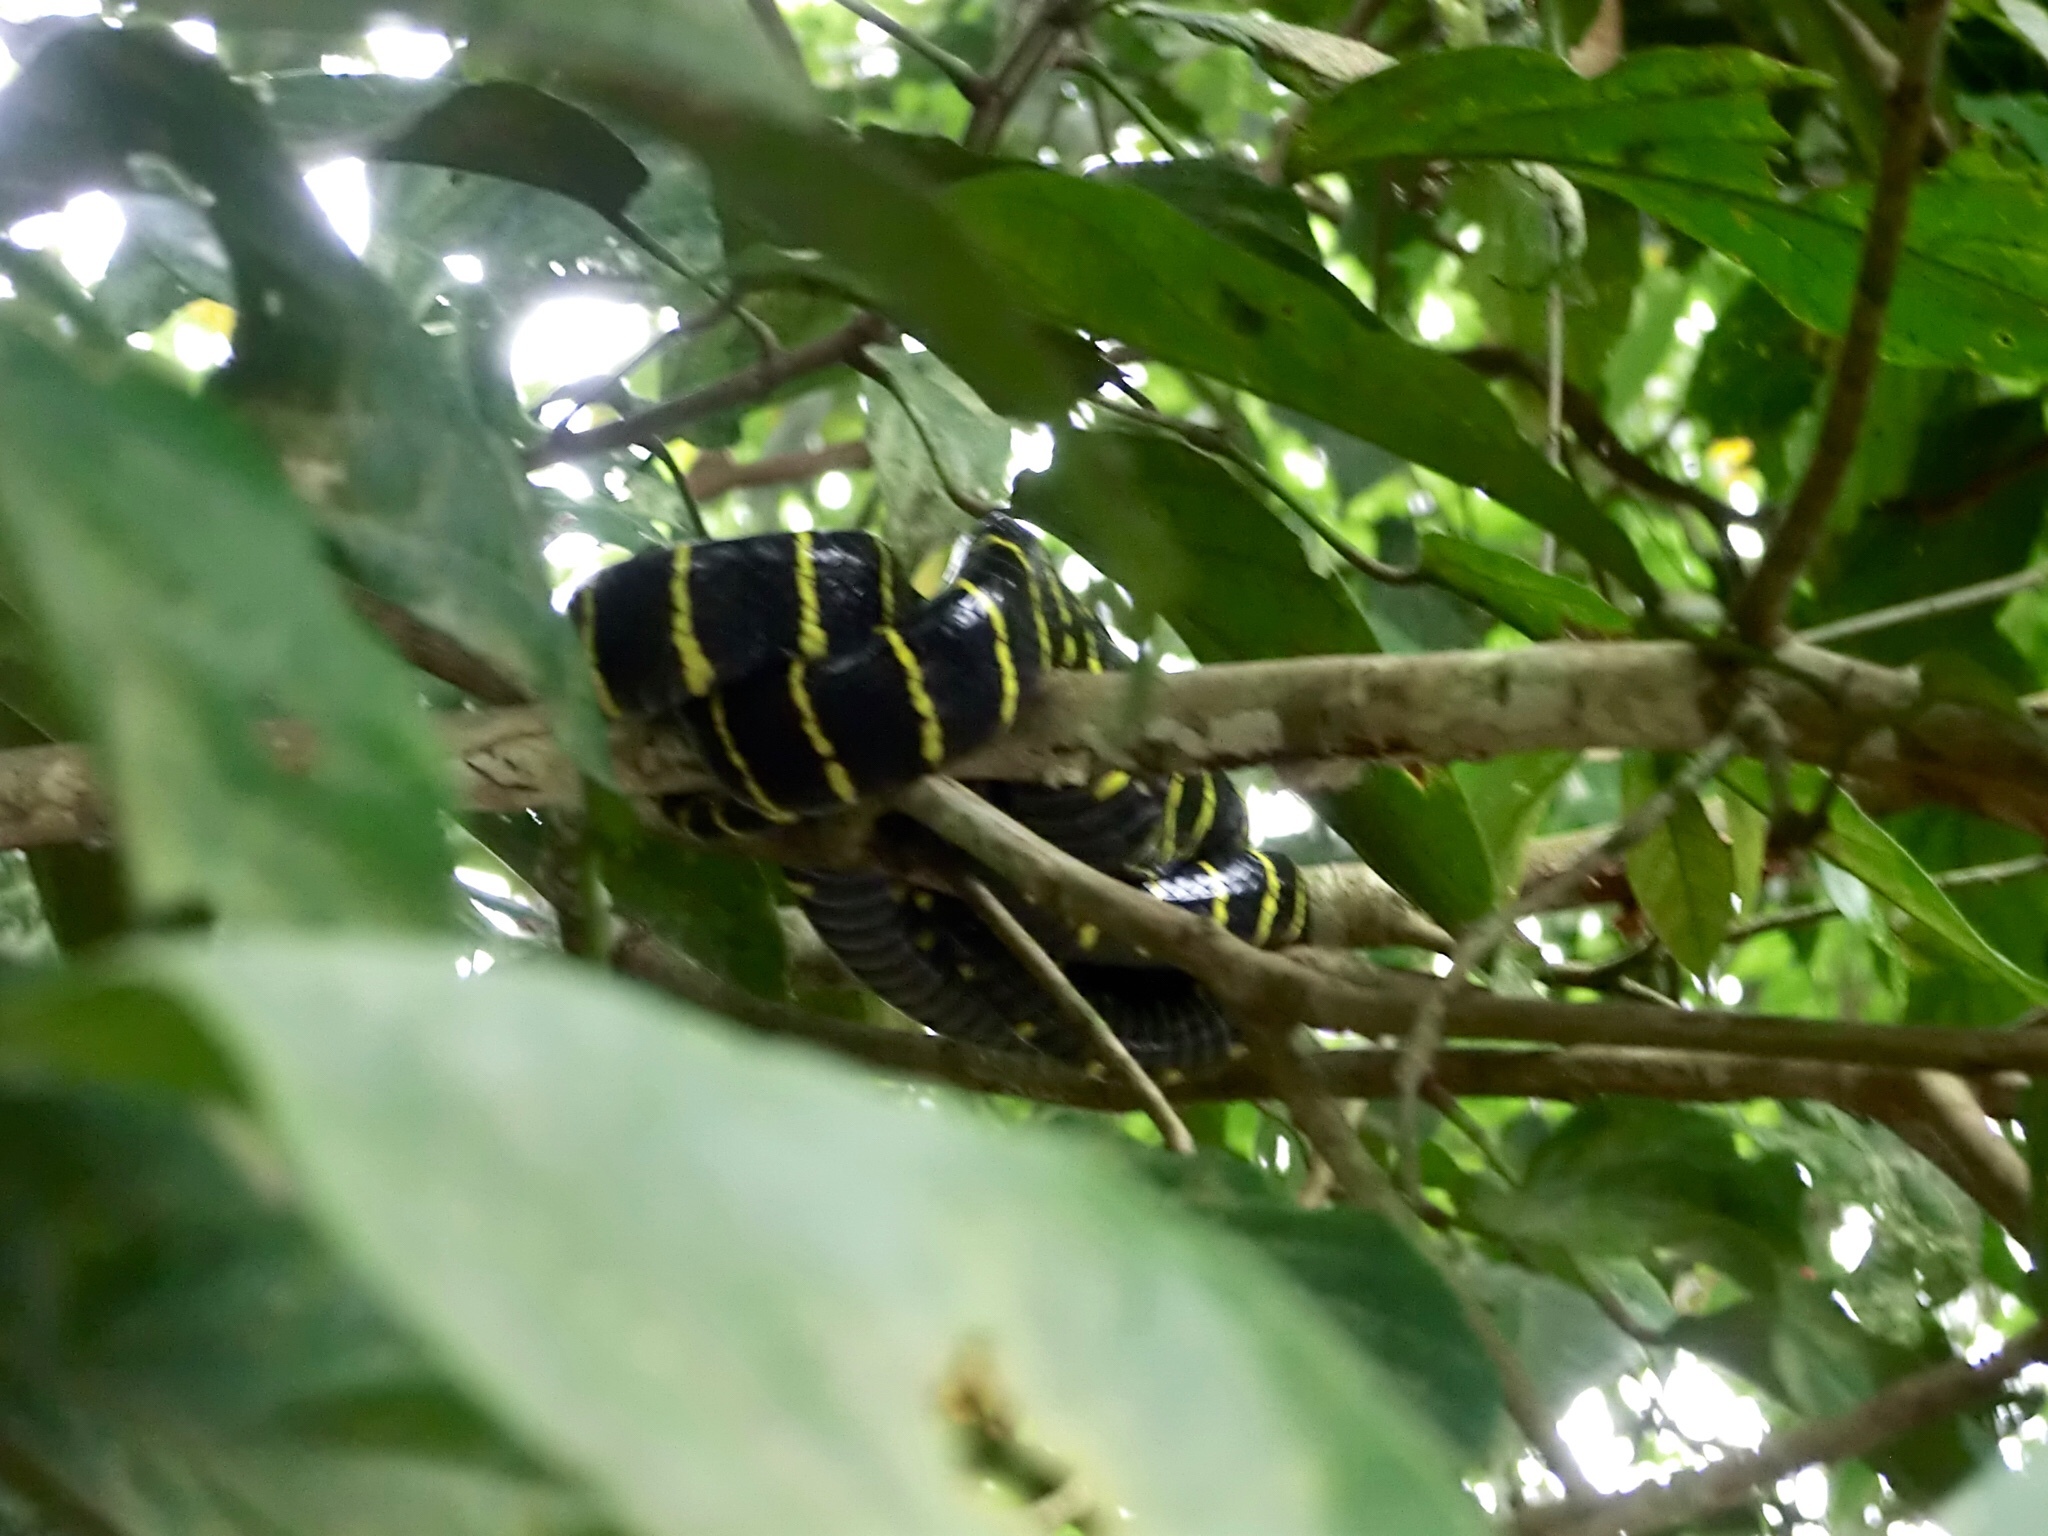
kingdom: Animalia
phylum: Chordata
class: Squamata
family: Colubridae
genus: Boiga
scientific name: Boiga dendrophila
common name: Gold-ringed cat snake
